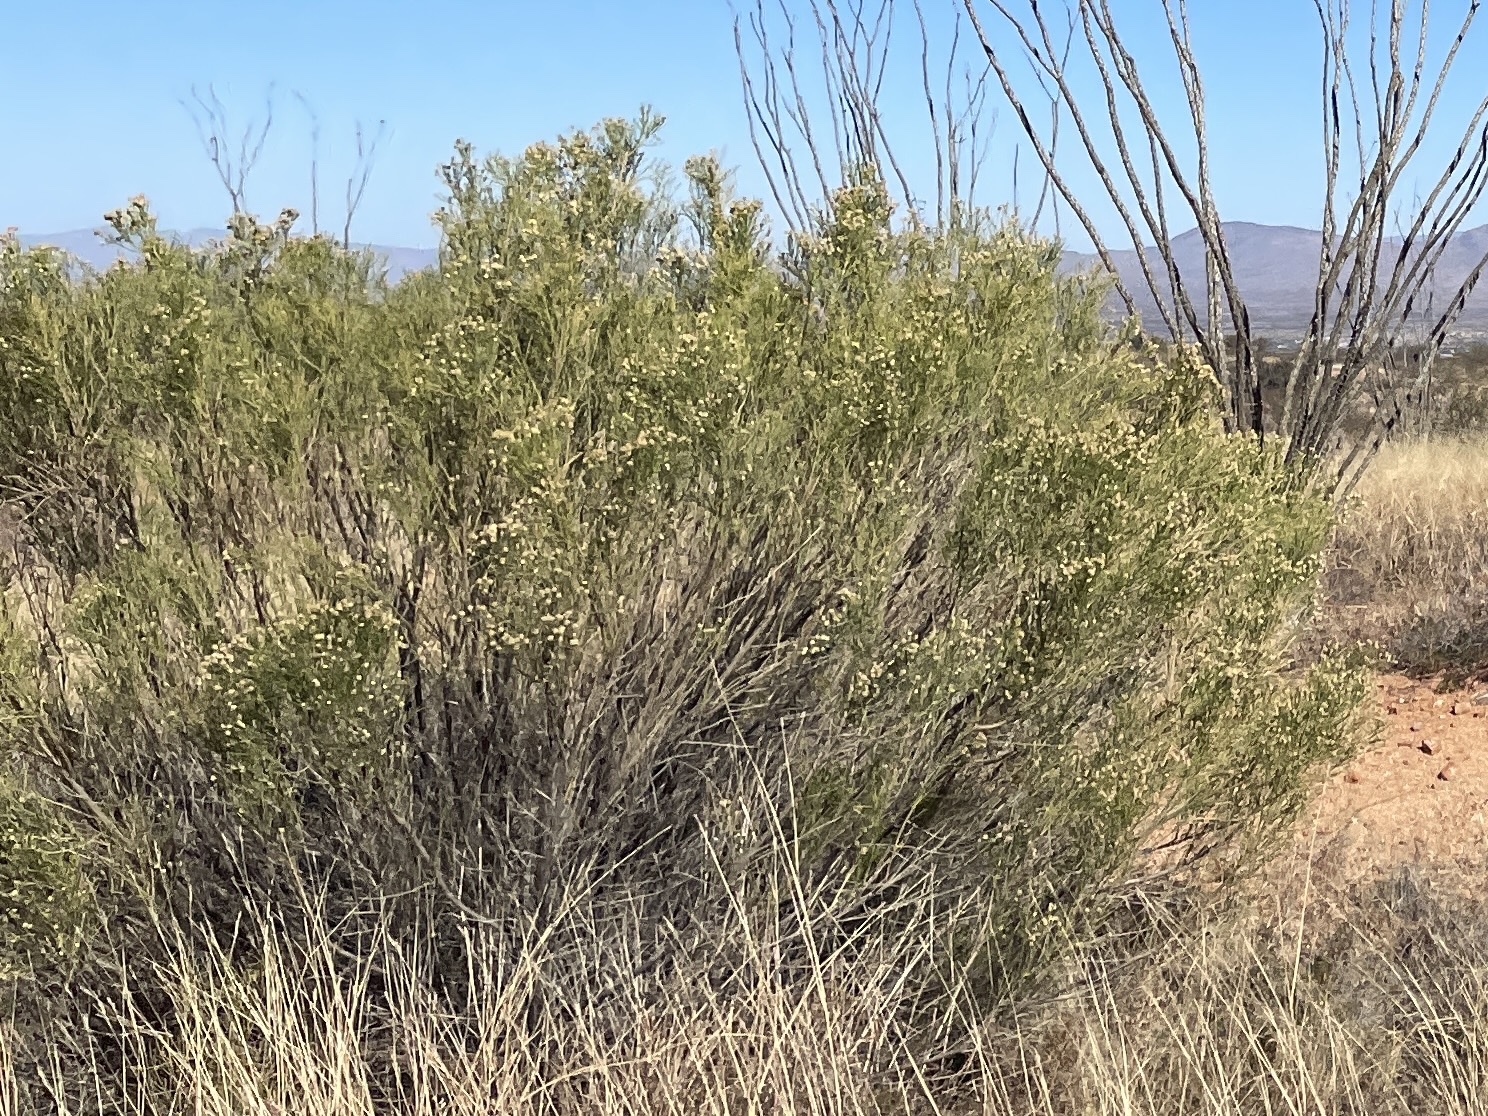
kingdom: Plantae
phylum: Tracheophyta
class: Magnoliopsida
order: Asterales
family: Asteraceae
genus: Baccharis
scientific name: Baccharis sarothroides
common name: Desert-broom
